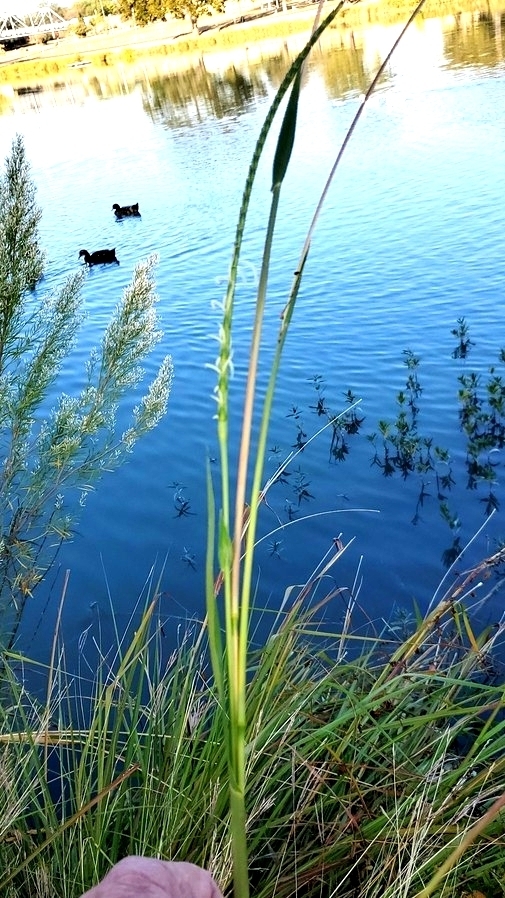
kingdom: Plantae
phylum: Tracheophyta
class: Liliopsida
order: Poales
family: Poaceae
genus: Tripsacum
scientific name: Tripsacum dactyloides
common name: Buffalo-grass
